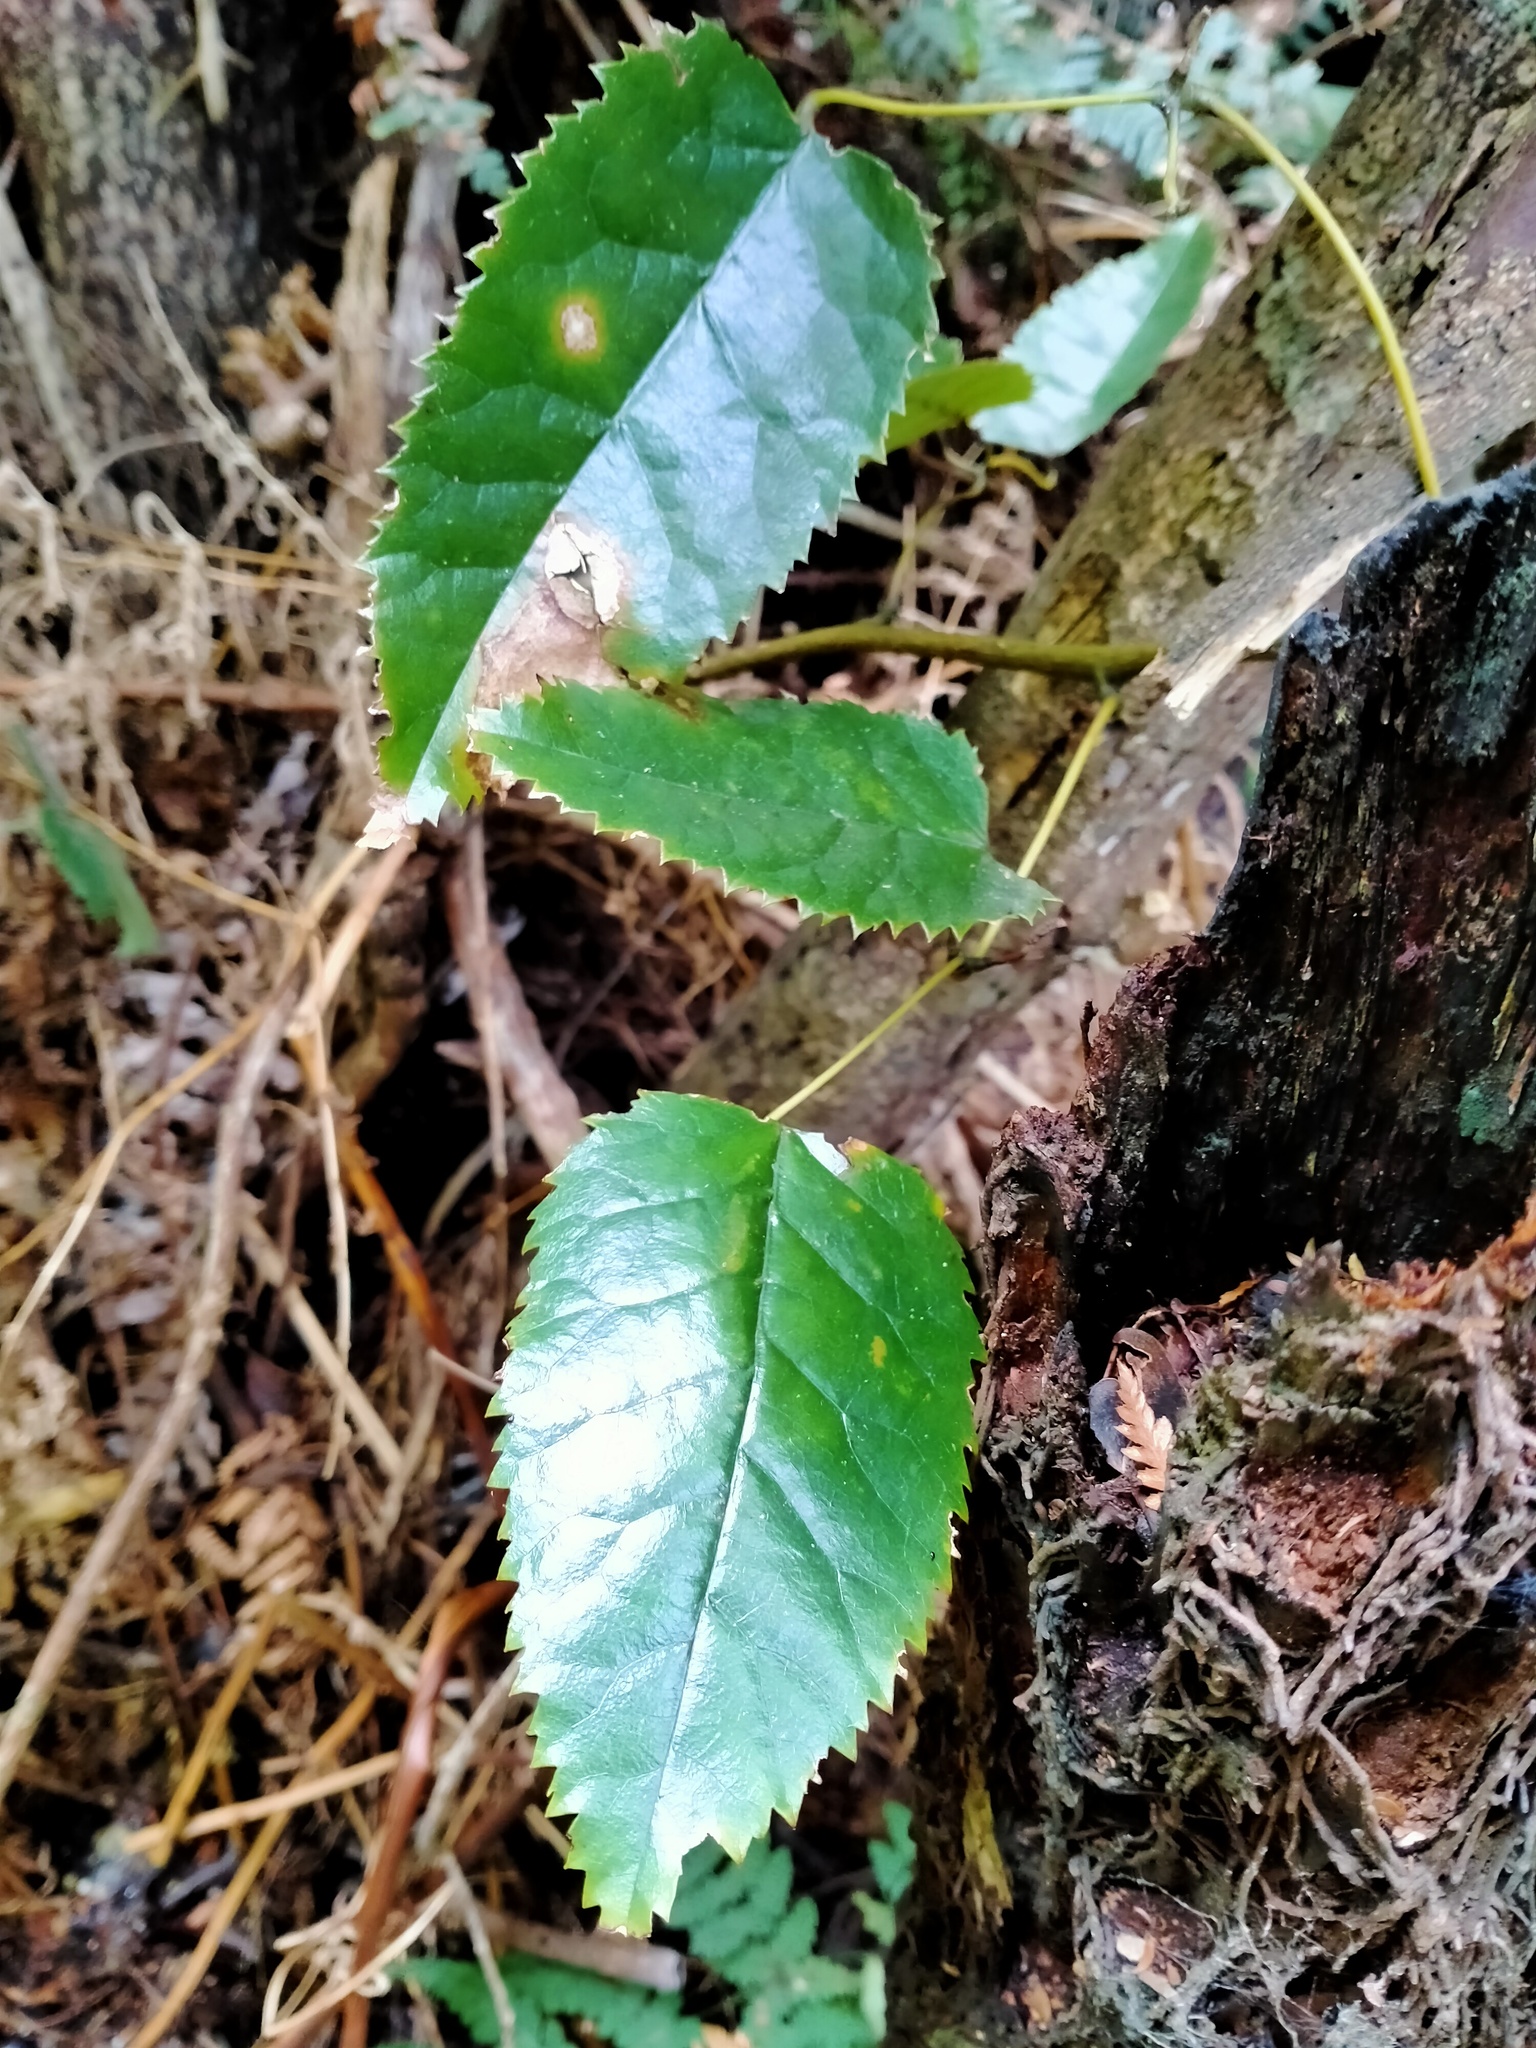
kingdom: Plantae
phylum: Tracheophyta
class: Magnoliopsida
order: Rosales
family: Rosaceae
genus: Rubus
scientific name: Rubus cissoides
